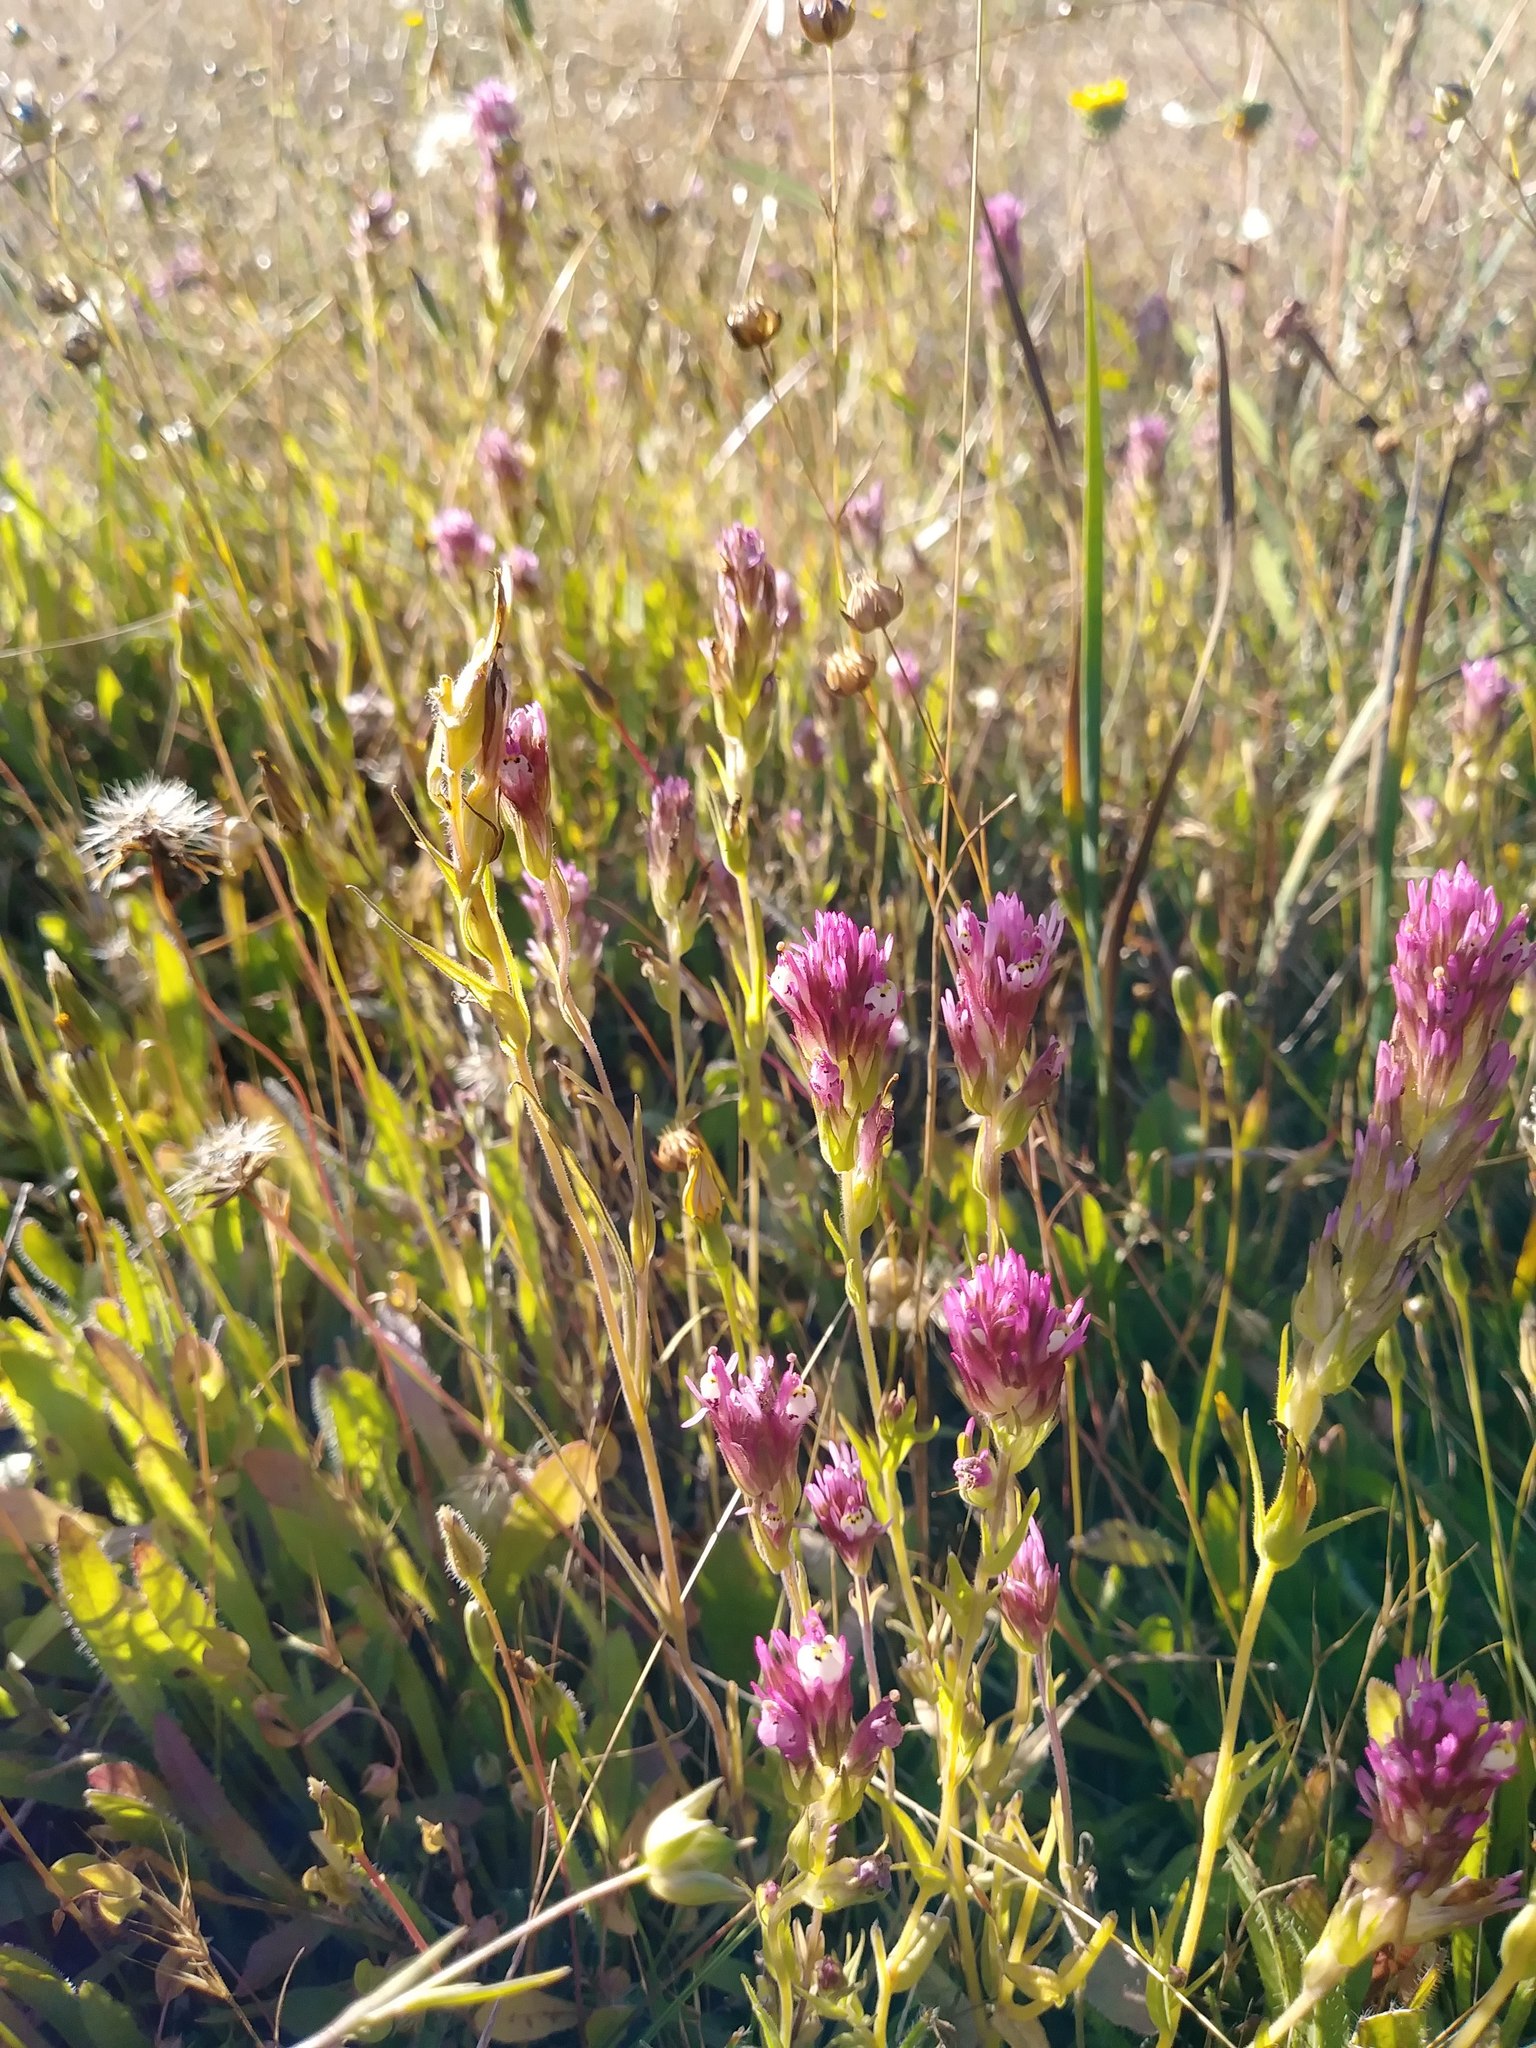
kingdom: Plantae
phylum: Tracheophyta
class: Magnoliopsida
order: Lamiales
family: Orobanchaceae
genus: Castilleja
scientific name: Castilleja densiflora
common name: Dense-flower indian paintbrush
